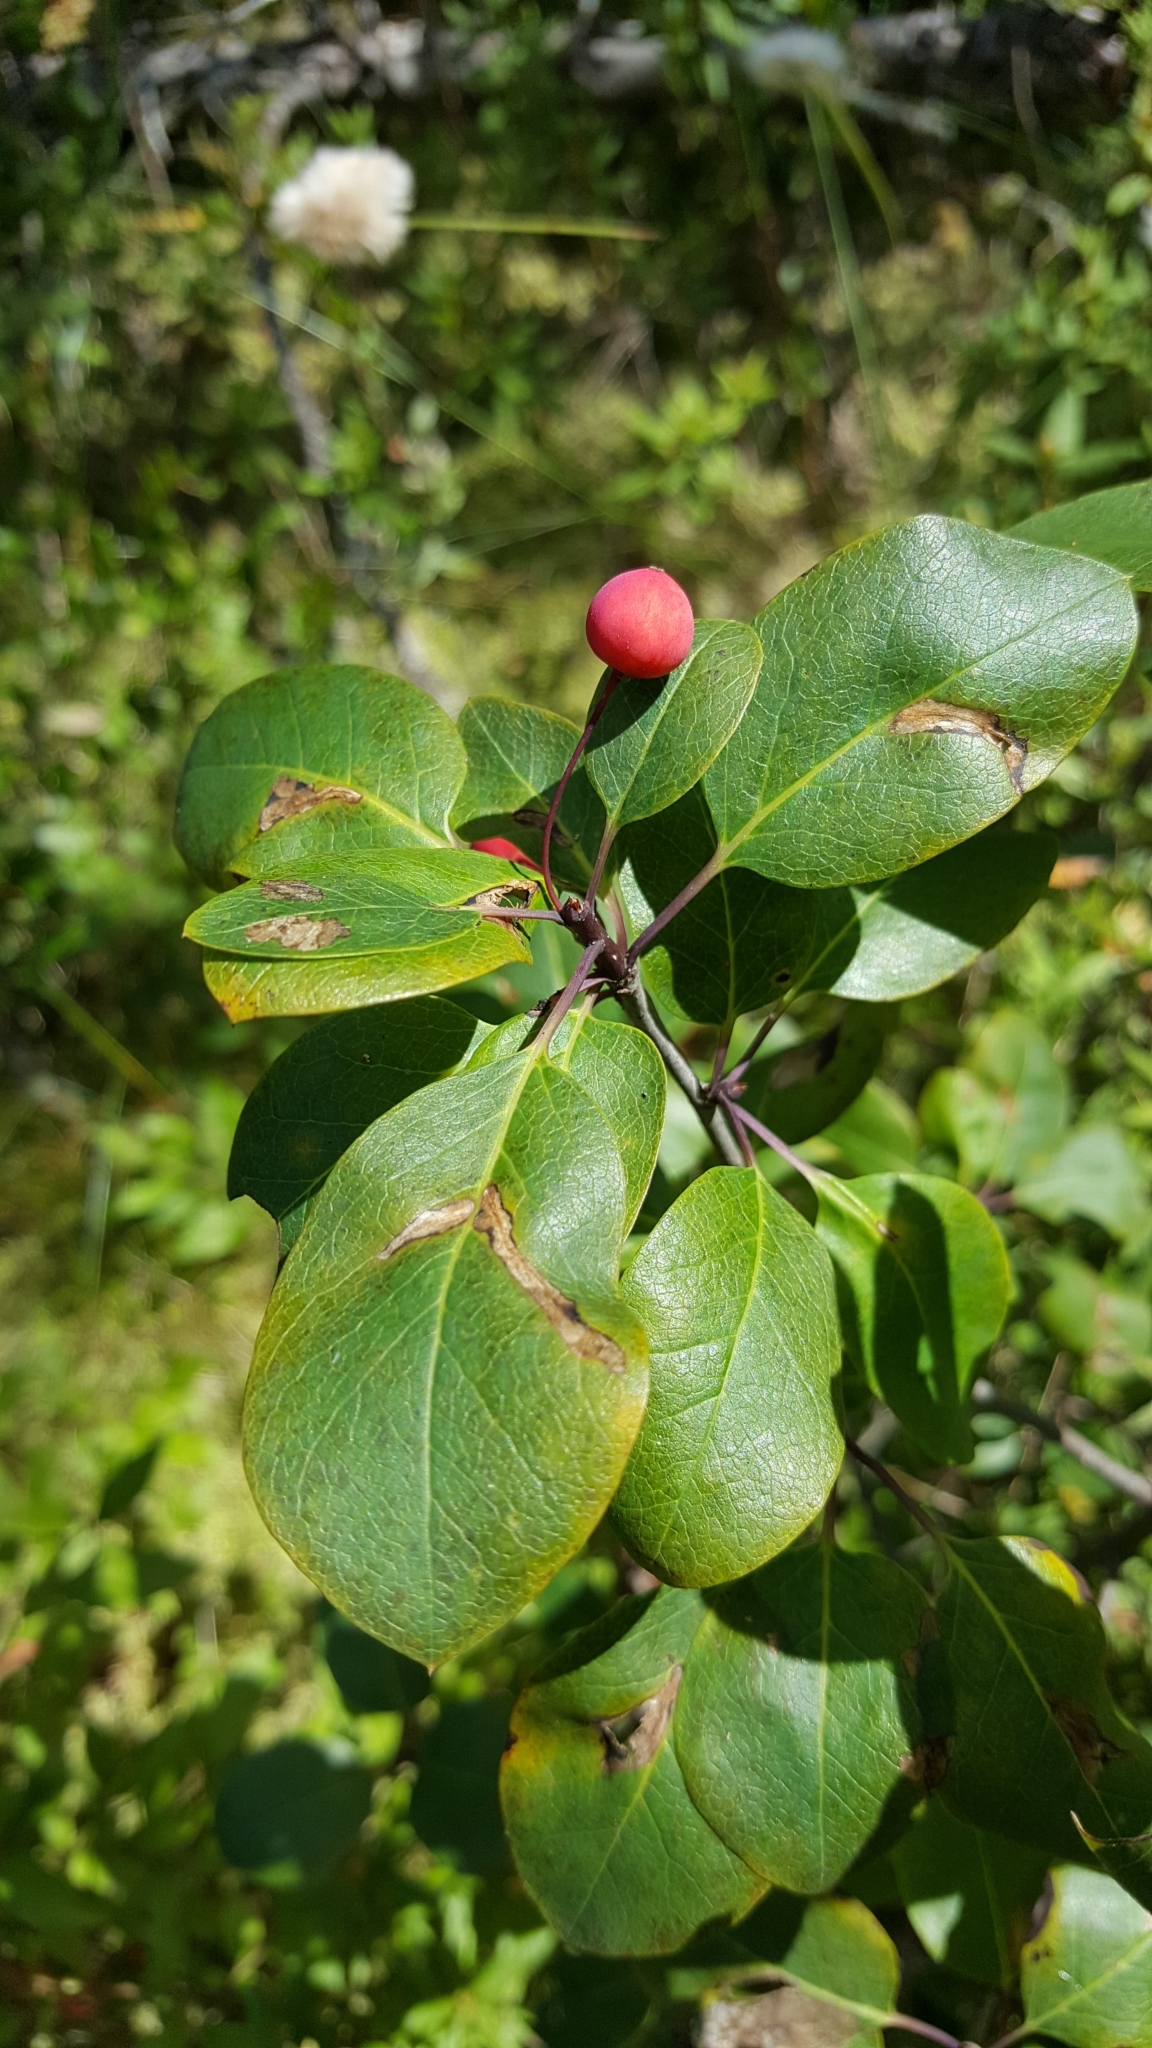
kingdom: Plantae
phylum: Tracheophyta
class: Magnoliopsida
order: Aquifoliales
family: Aquifoliaceae
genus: Ilex
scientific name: Ilex mucronata
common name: Catberry
